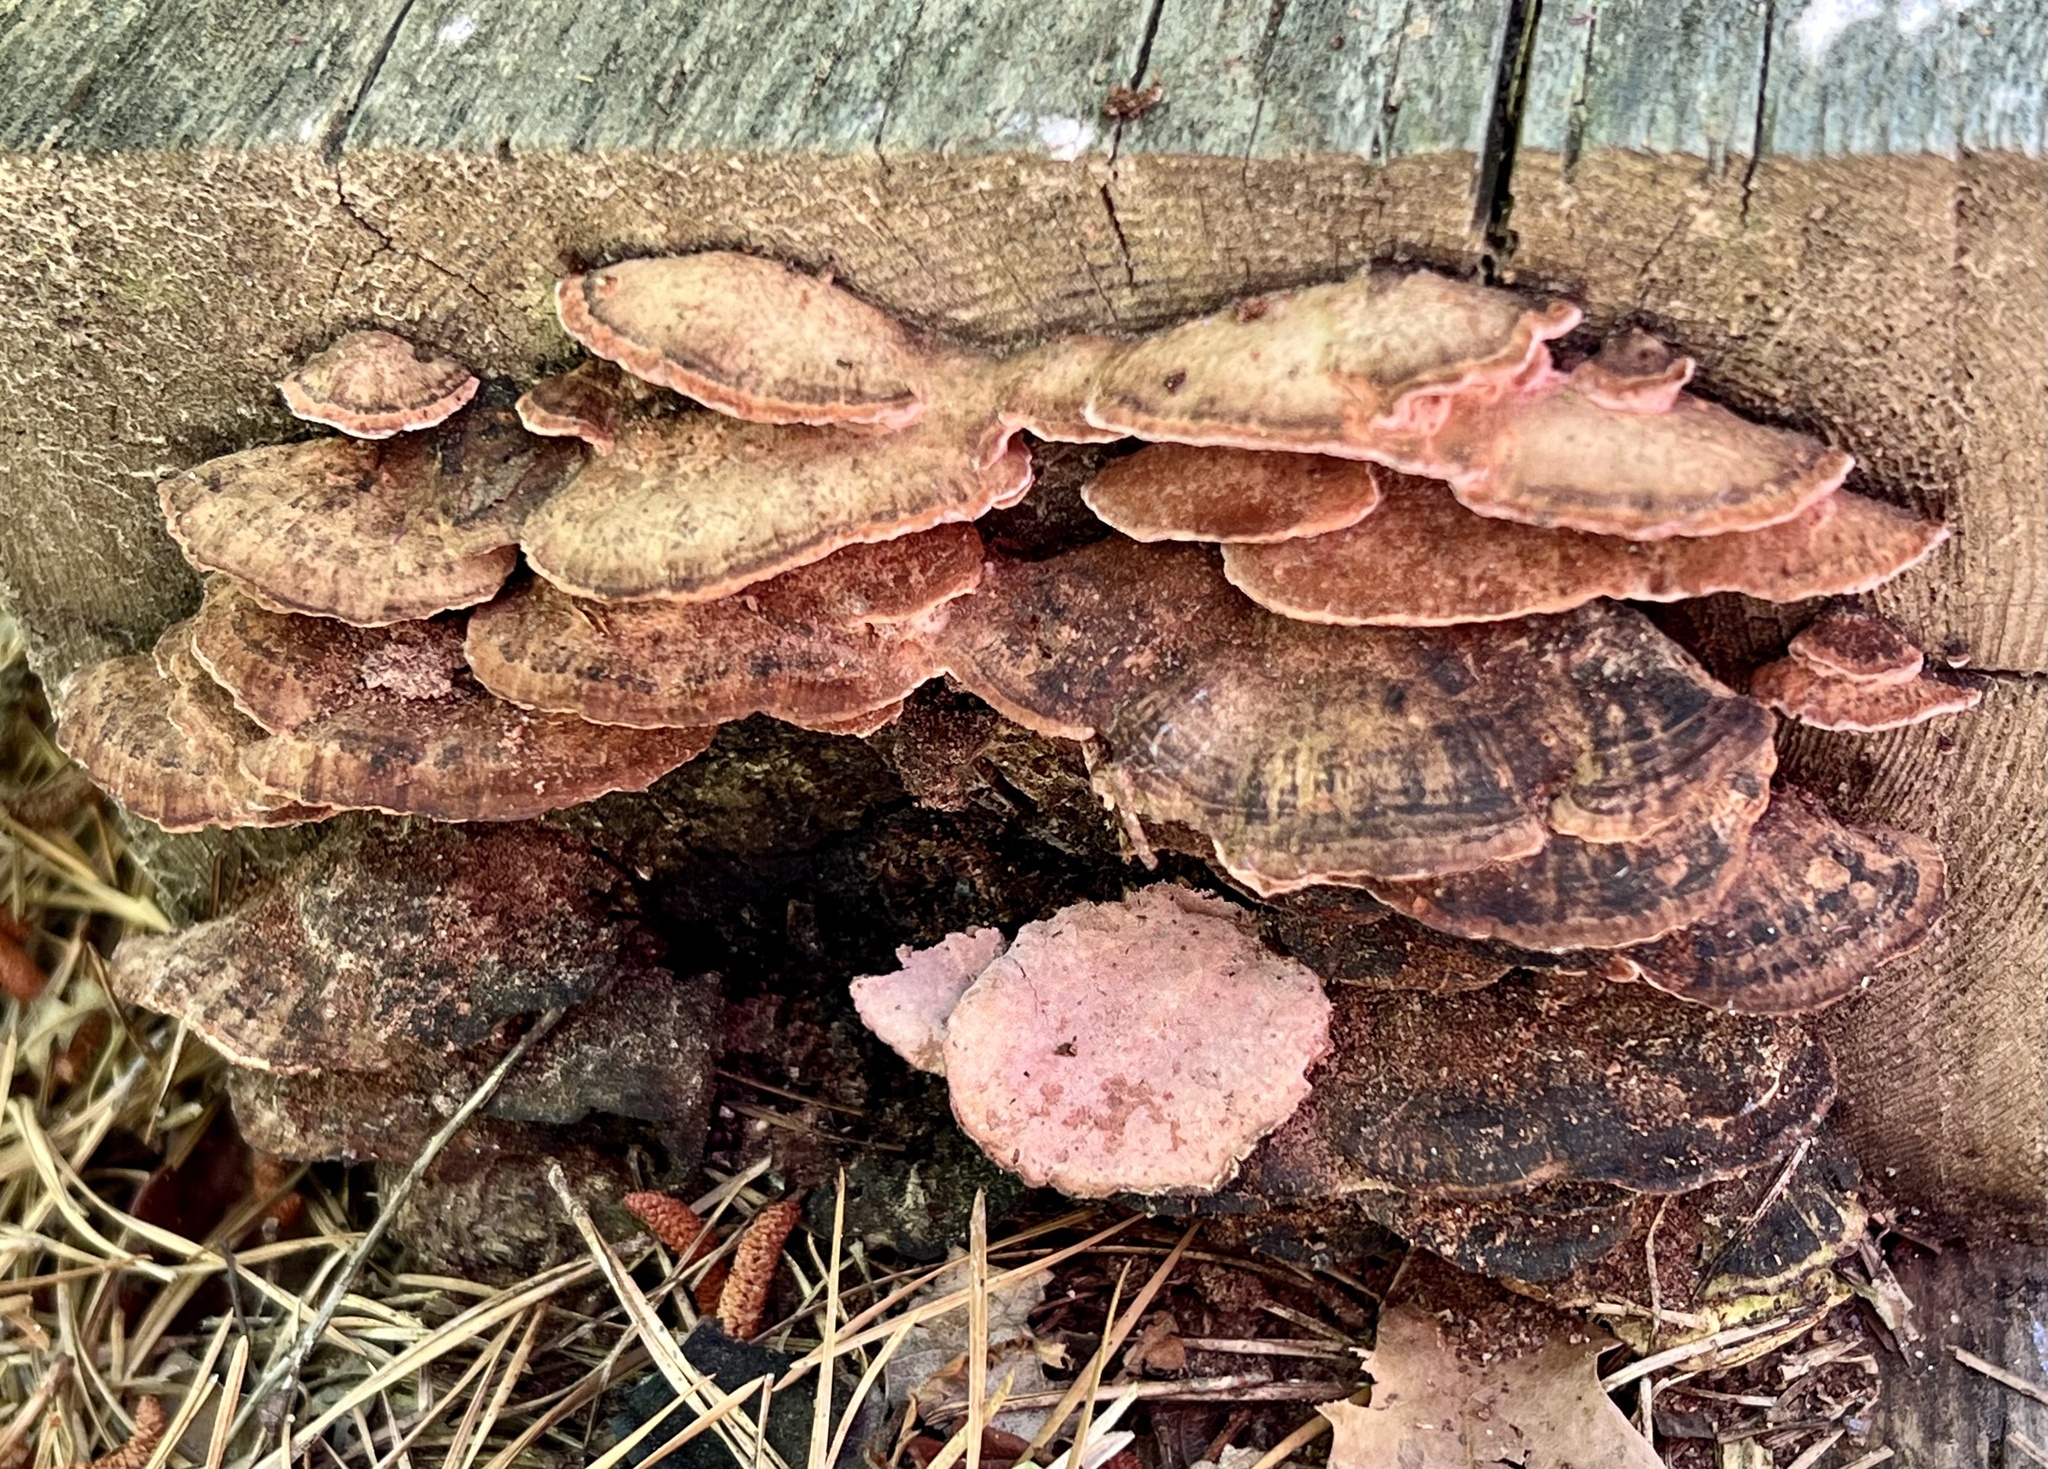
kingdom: Fungi
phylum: Basidiomycota
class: Agaricomycetes
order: Polyporales
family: Fomitopsidaceae
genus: Rhodofomes
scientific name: Rhodofomes cajanderi
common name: Rosy conk
